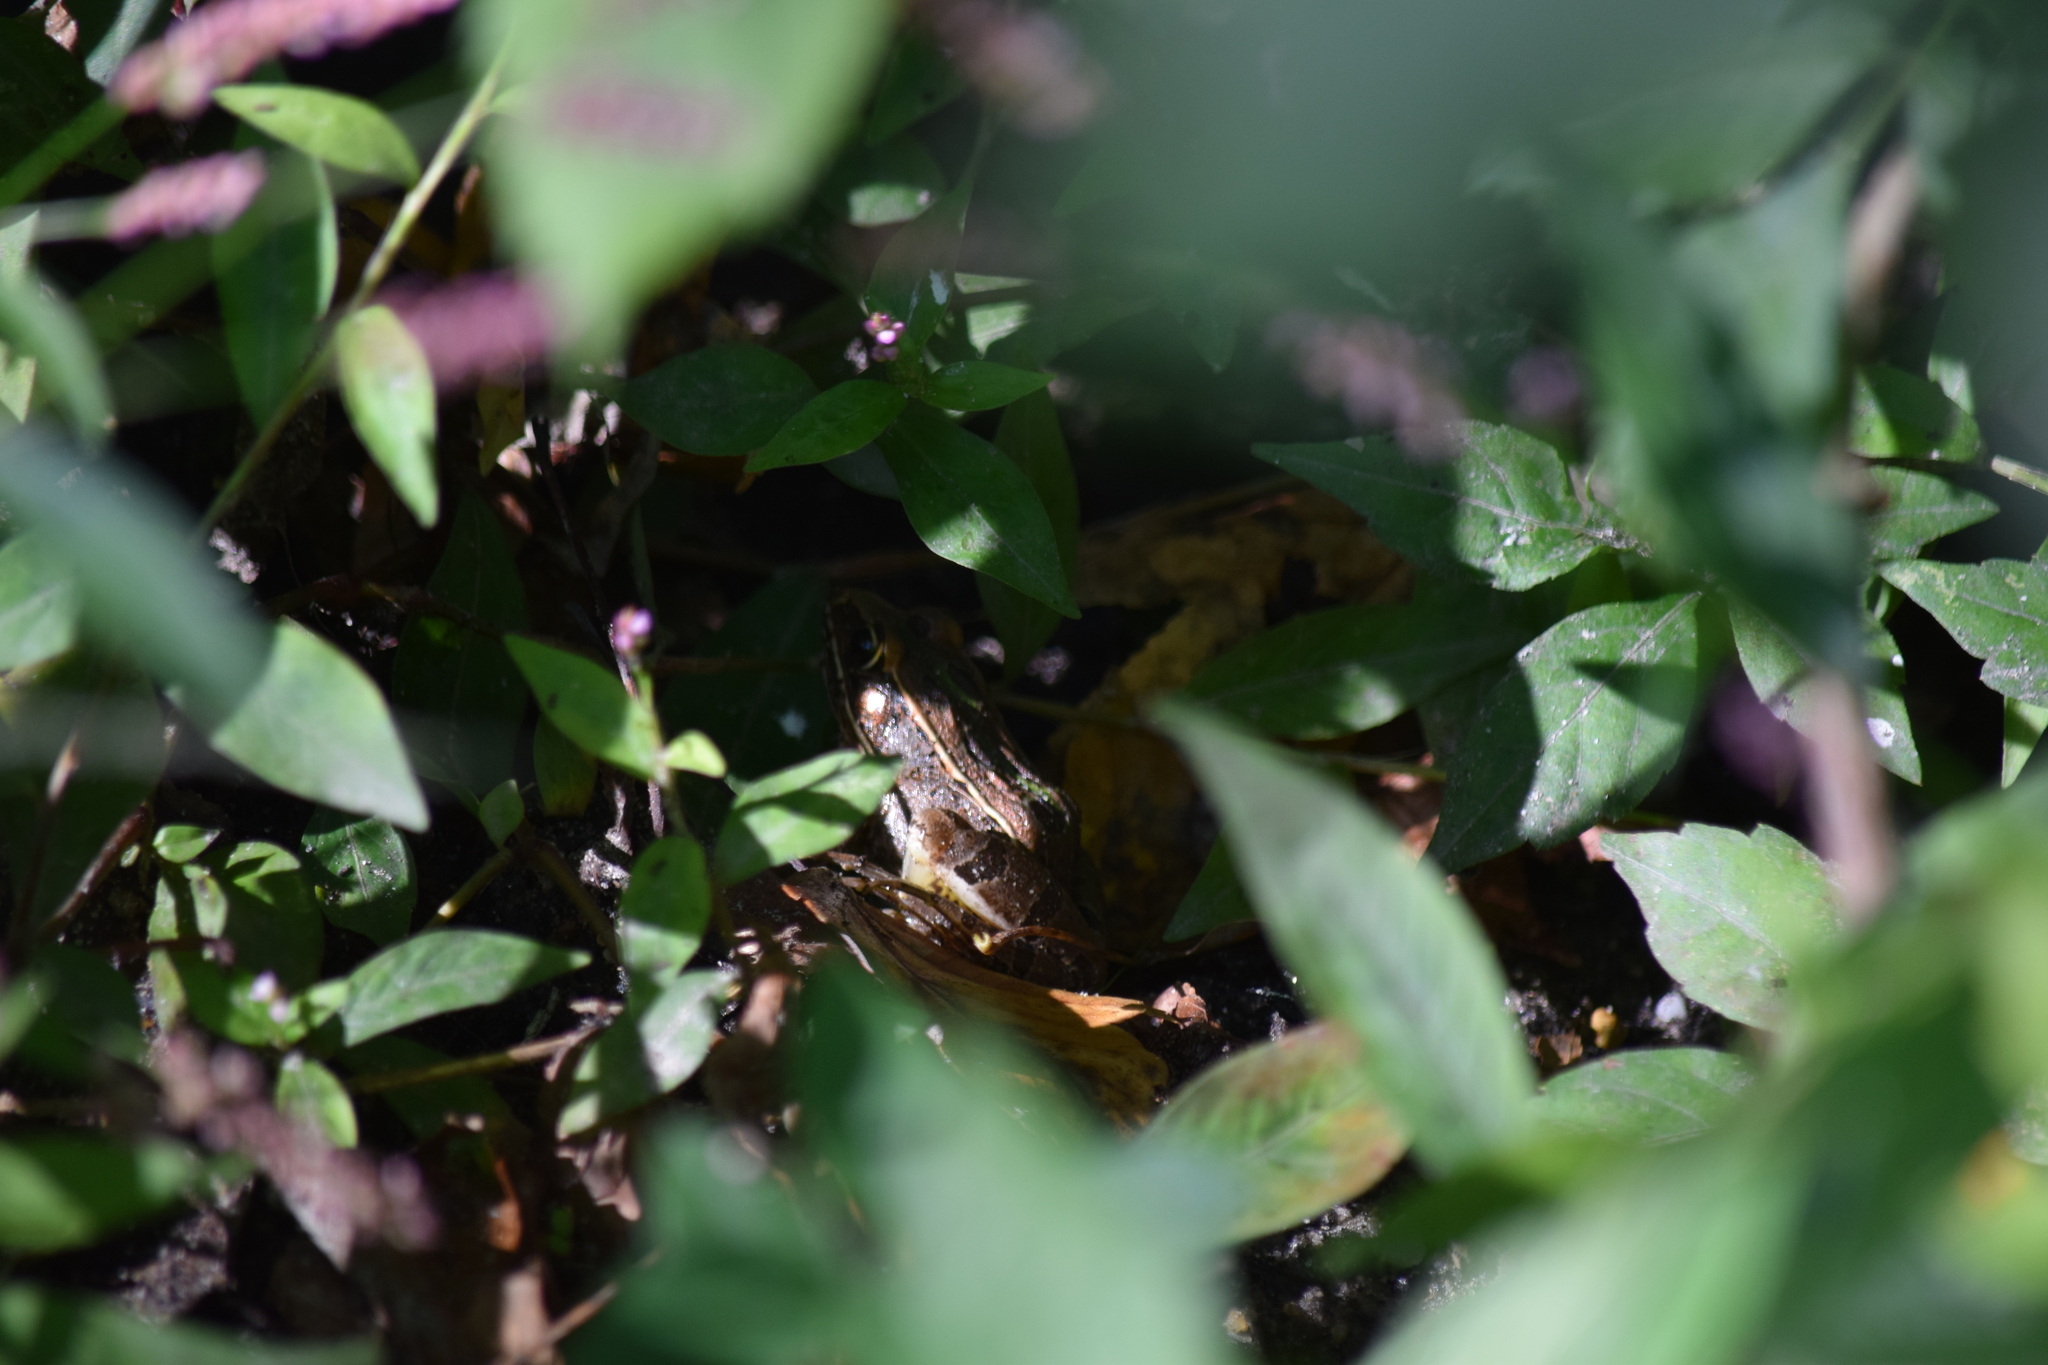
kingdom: Animalia
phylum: Chordata
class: Amphibia
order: Anura
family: Ranidae
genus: Lithobates
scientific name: Lithobates sphenocephalus
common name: Southern leopard frog
